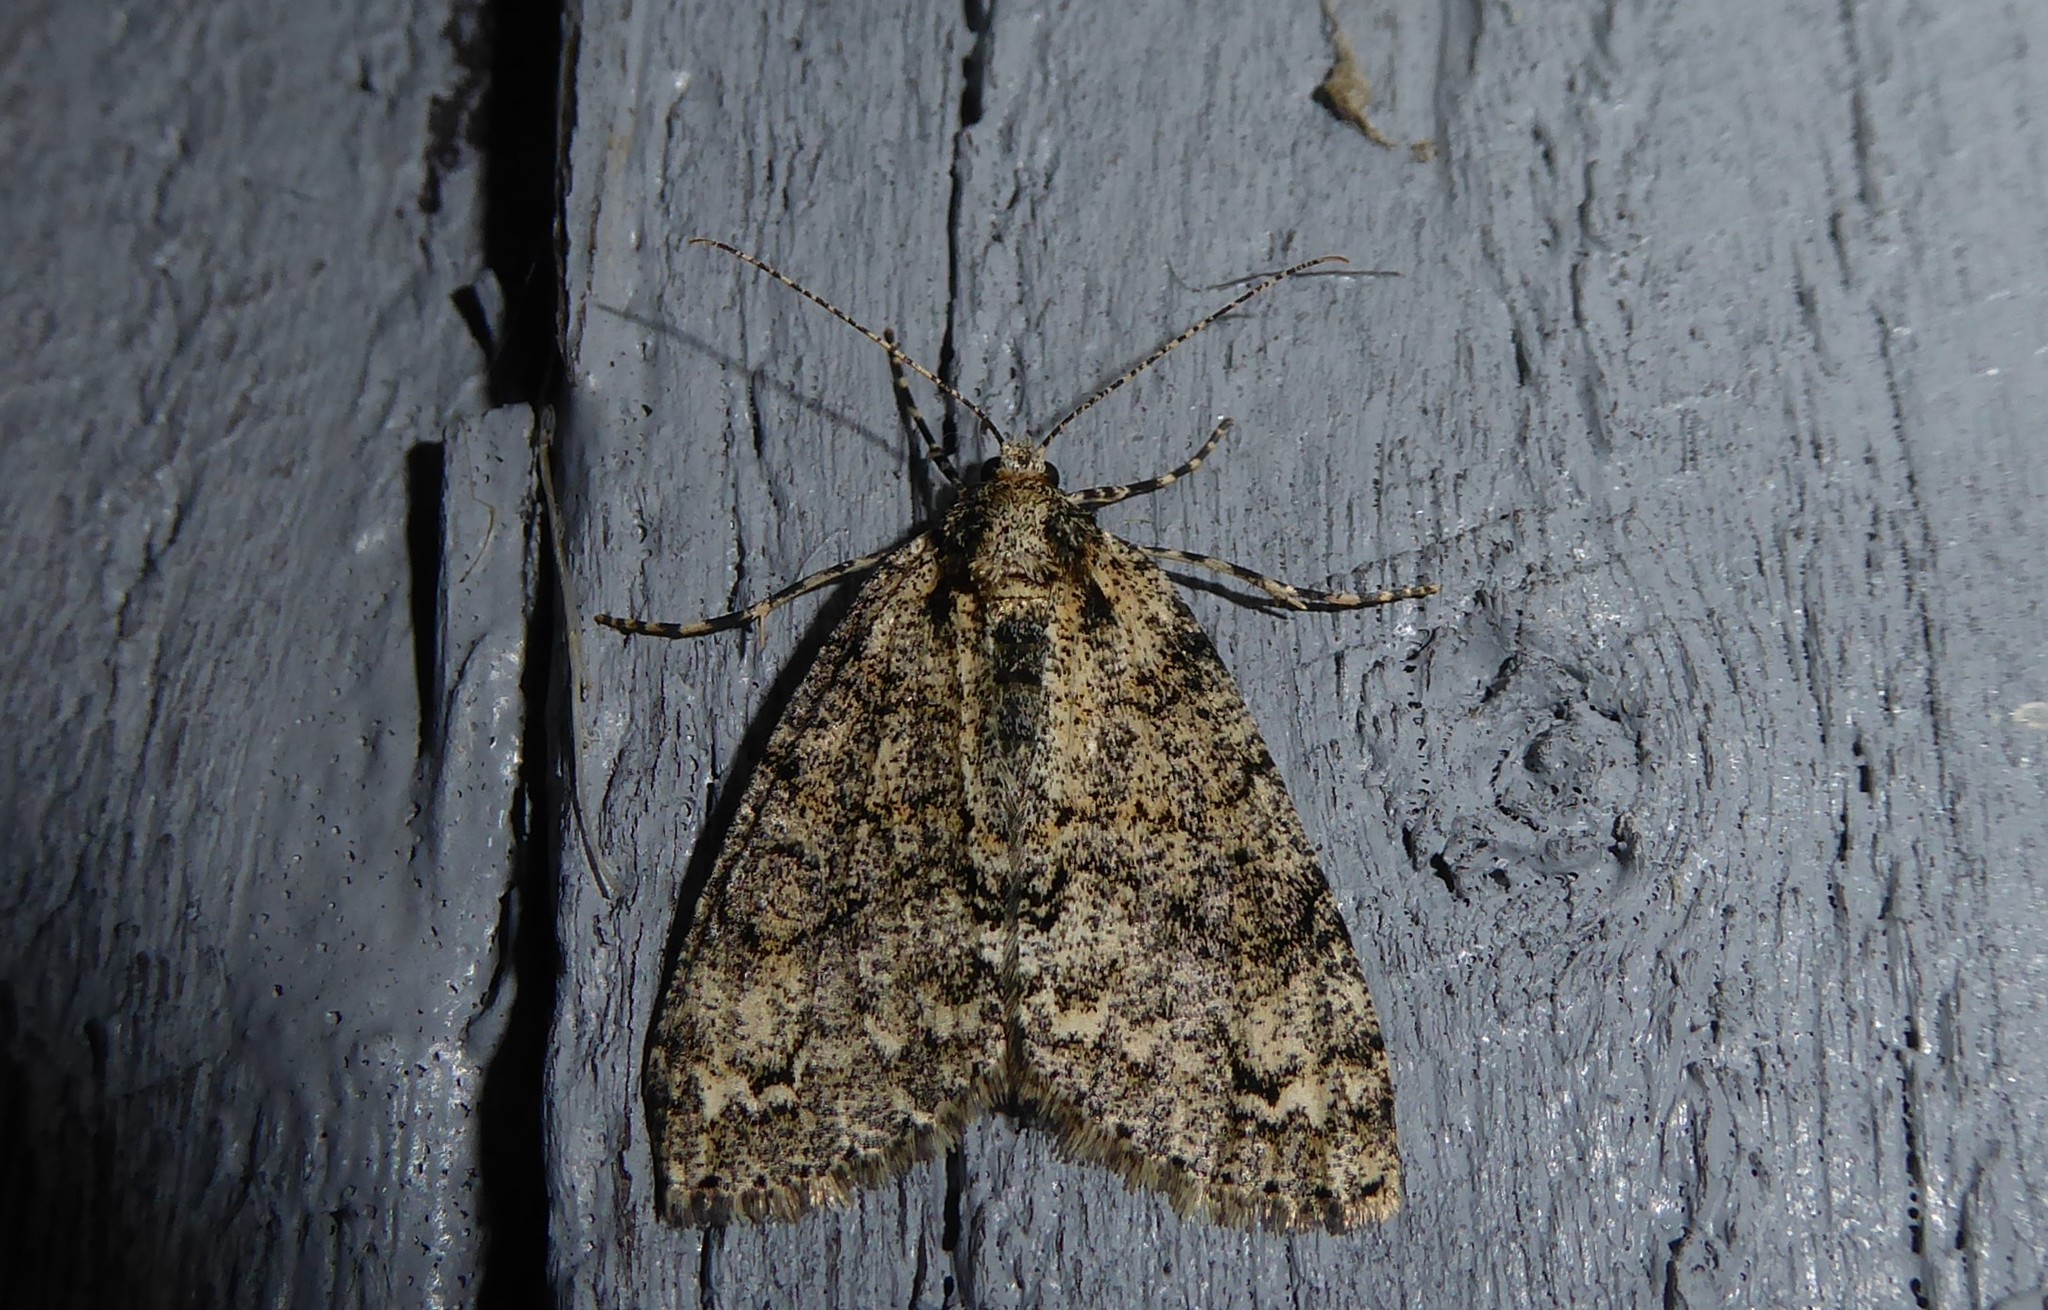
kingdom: Animalia
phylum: Arthropoda
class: Insecta
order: Lepidoptera
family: Geometridae
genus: Pseudocoremia
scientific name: Pseudocoremia suavis
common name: Common forest looper
